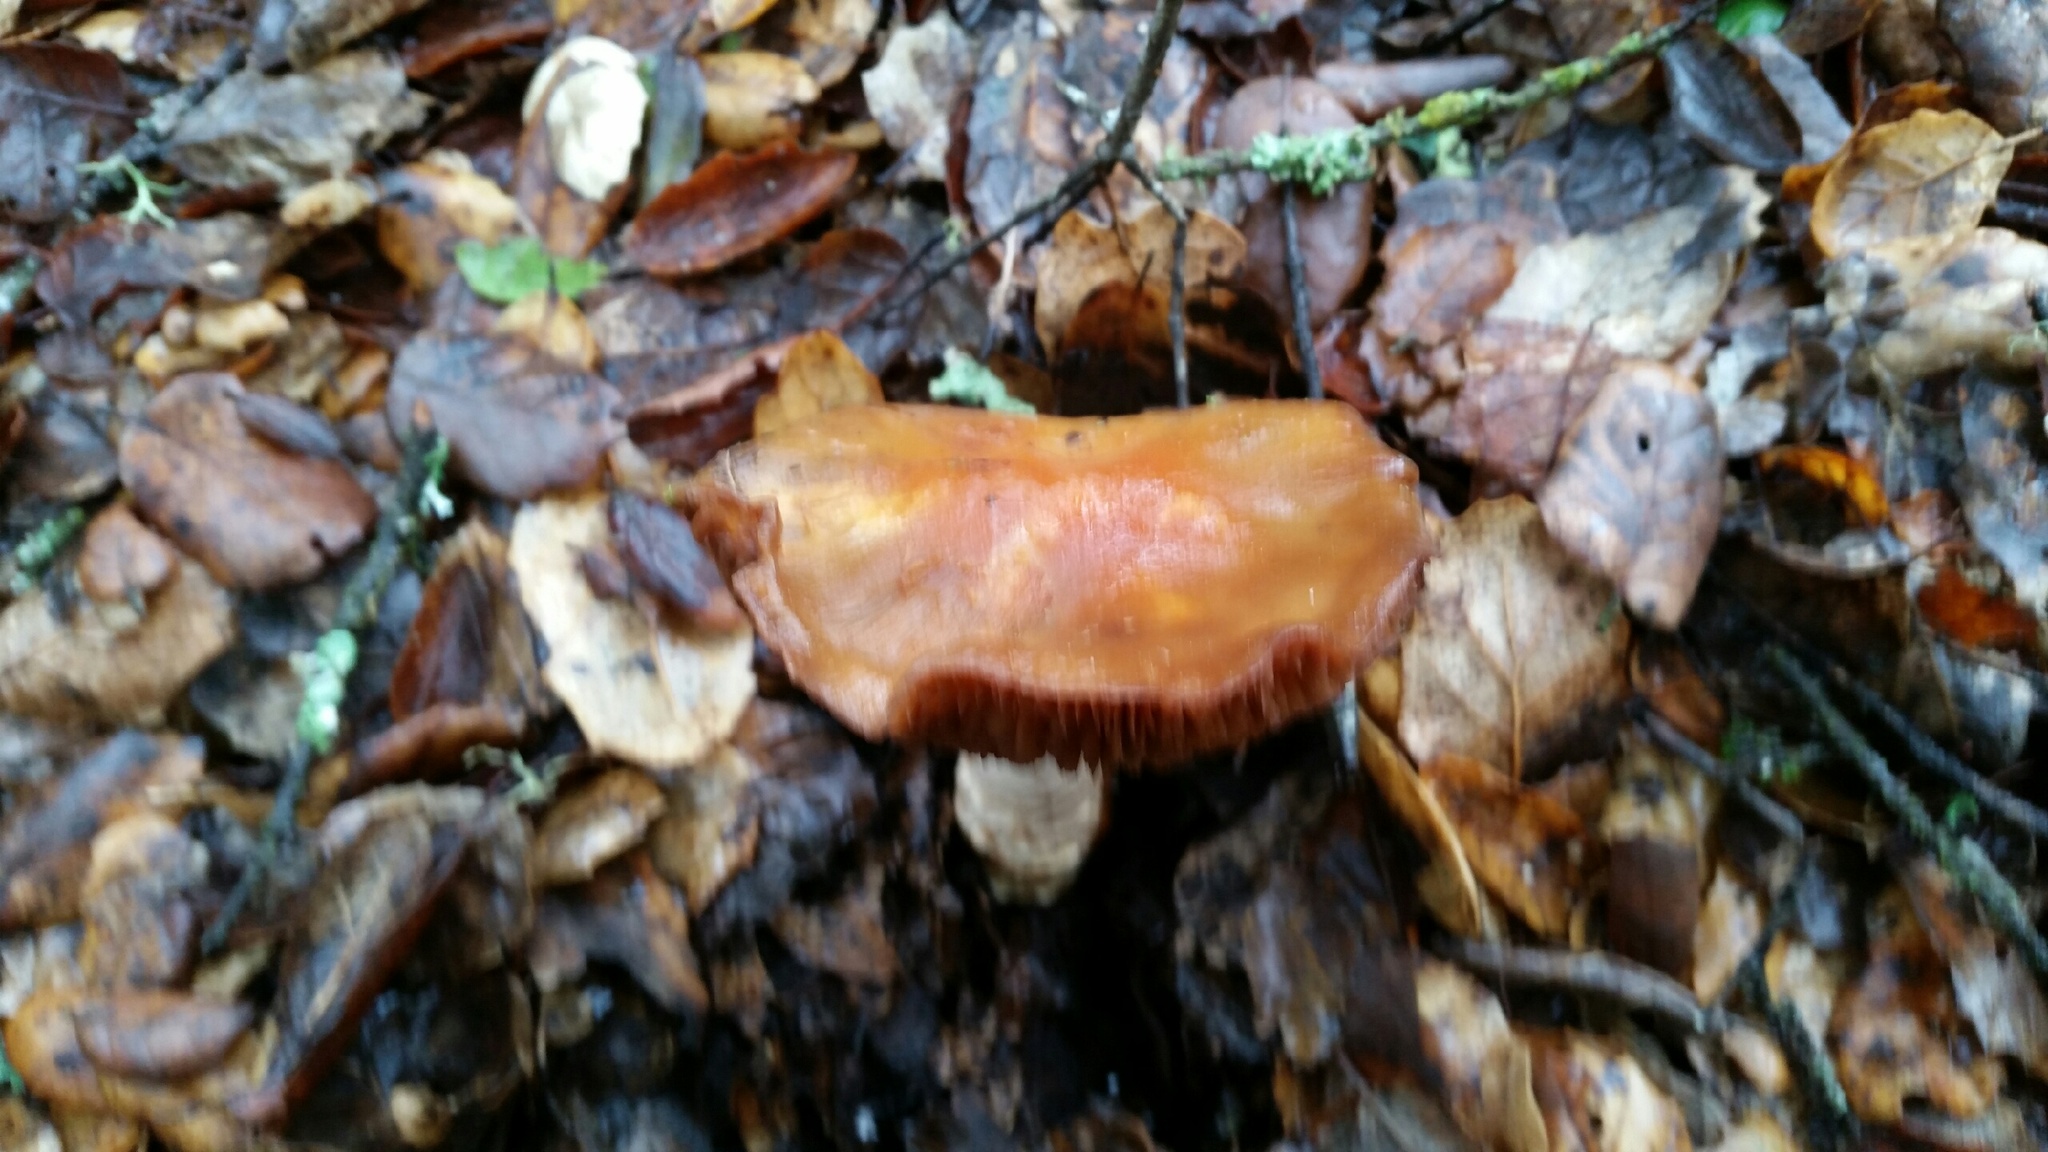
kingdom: Fungi
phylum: Basidiomycota
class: Agaricomycetes
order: Agaricales
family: Cortinariaceae
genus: Cortinarius
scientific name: Cortinarius glutinosoarmillatus
